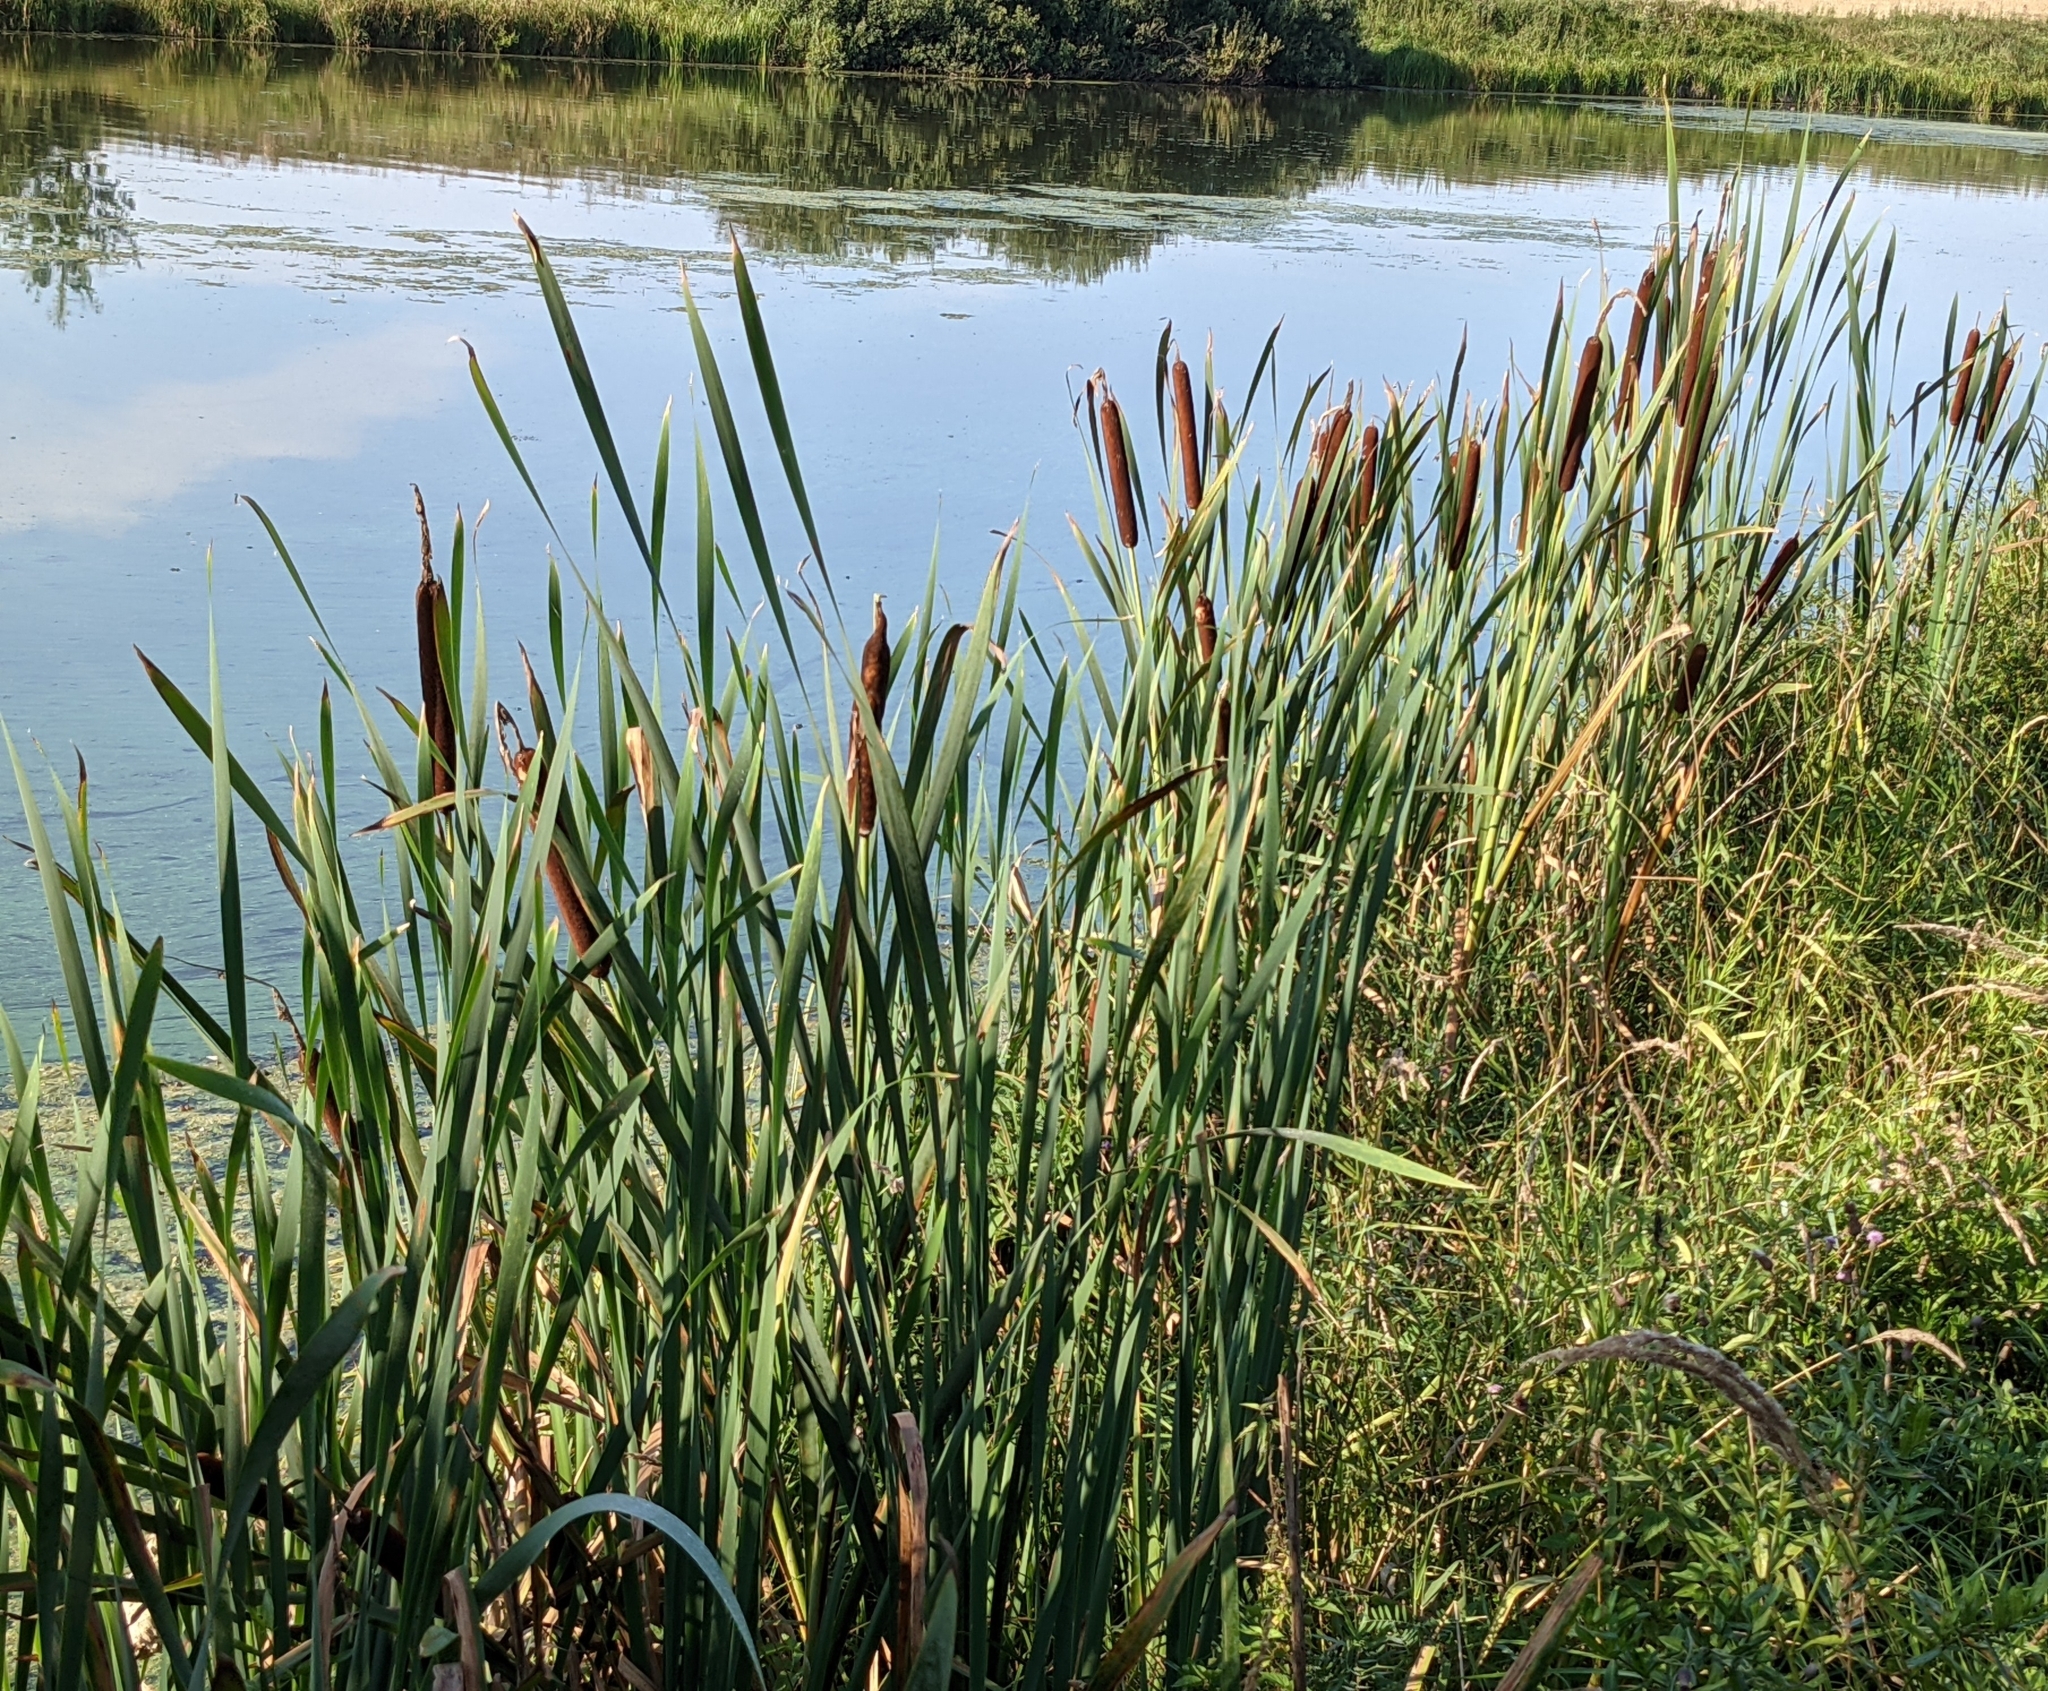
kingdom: Plantae
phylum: Tracheophyta
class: Liliopsida
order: Poales
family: Typhaceae
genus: Typha
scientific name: Typha latifolia
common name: Broadleaf cattail
